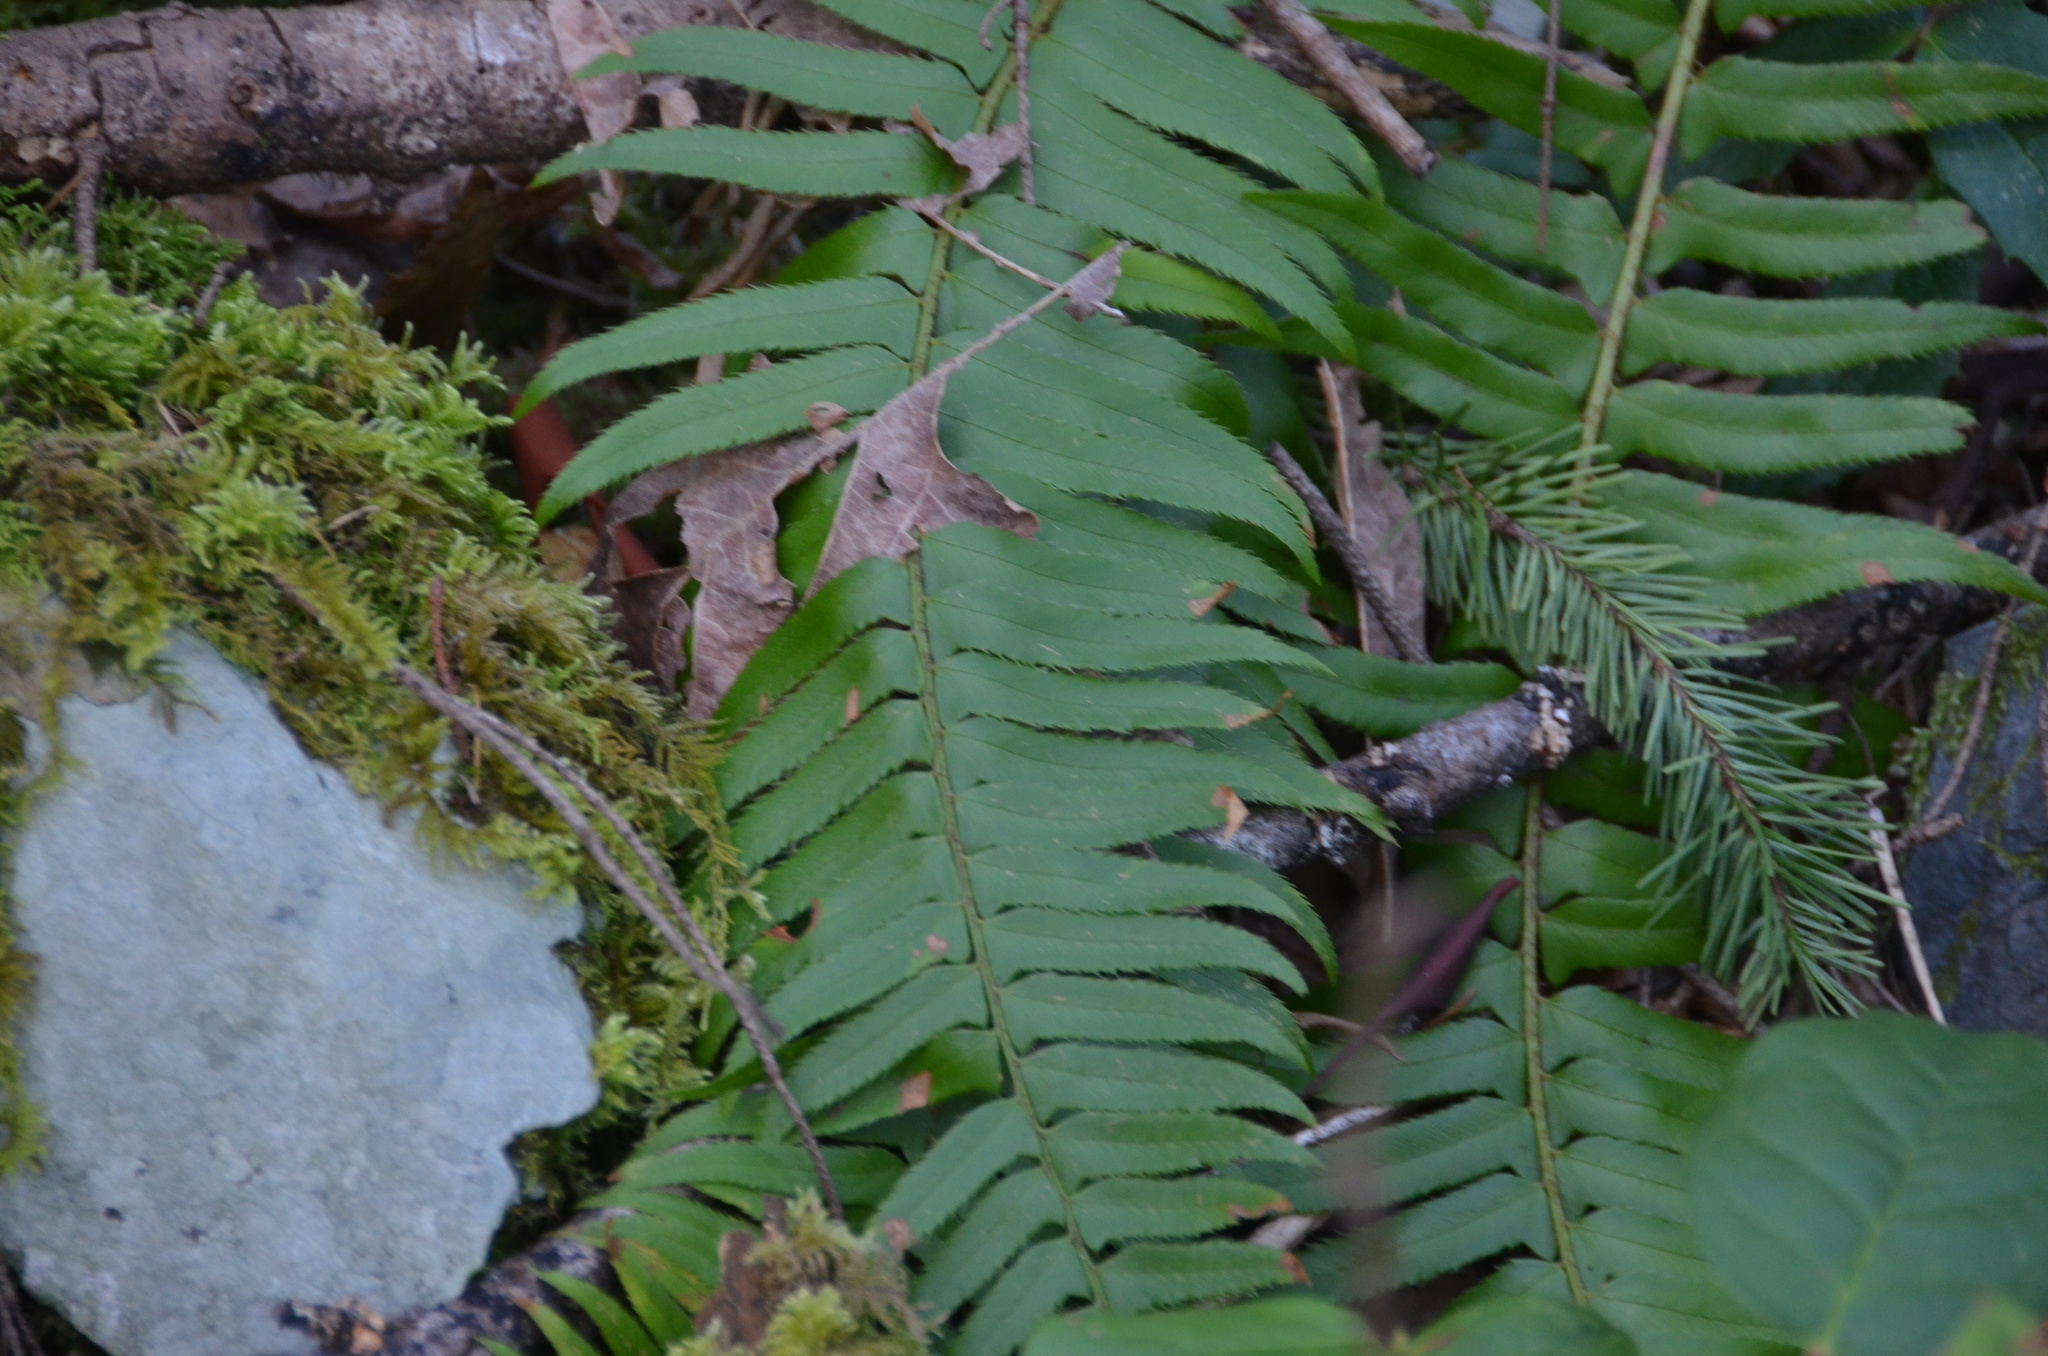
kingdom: Plantae
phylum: Tracheophyta
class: Polypodiopsida
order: Polypodiales
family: Dryopteridaceae
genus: Polystichum
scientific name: Polystichum munitum
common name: Western sword-fern
